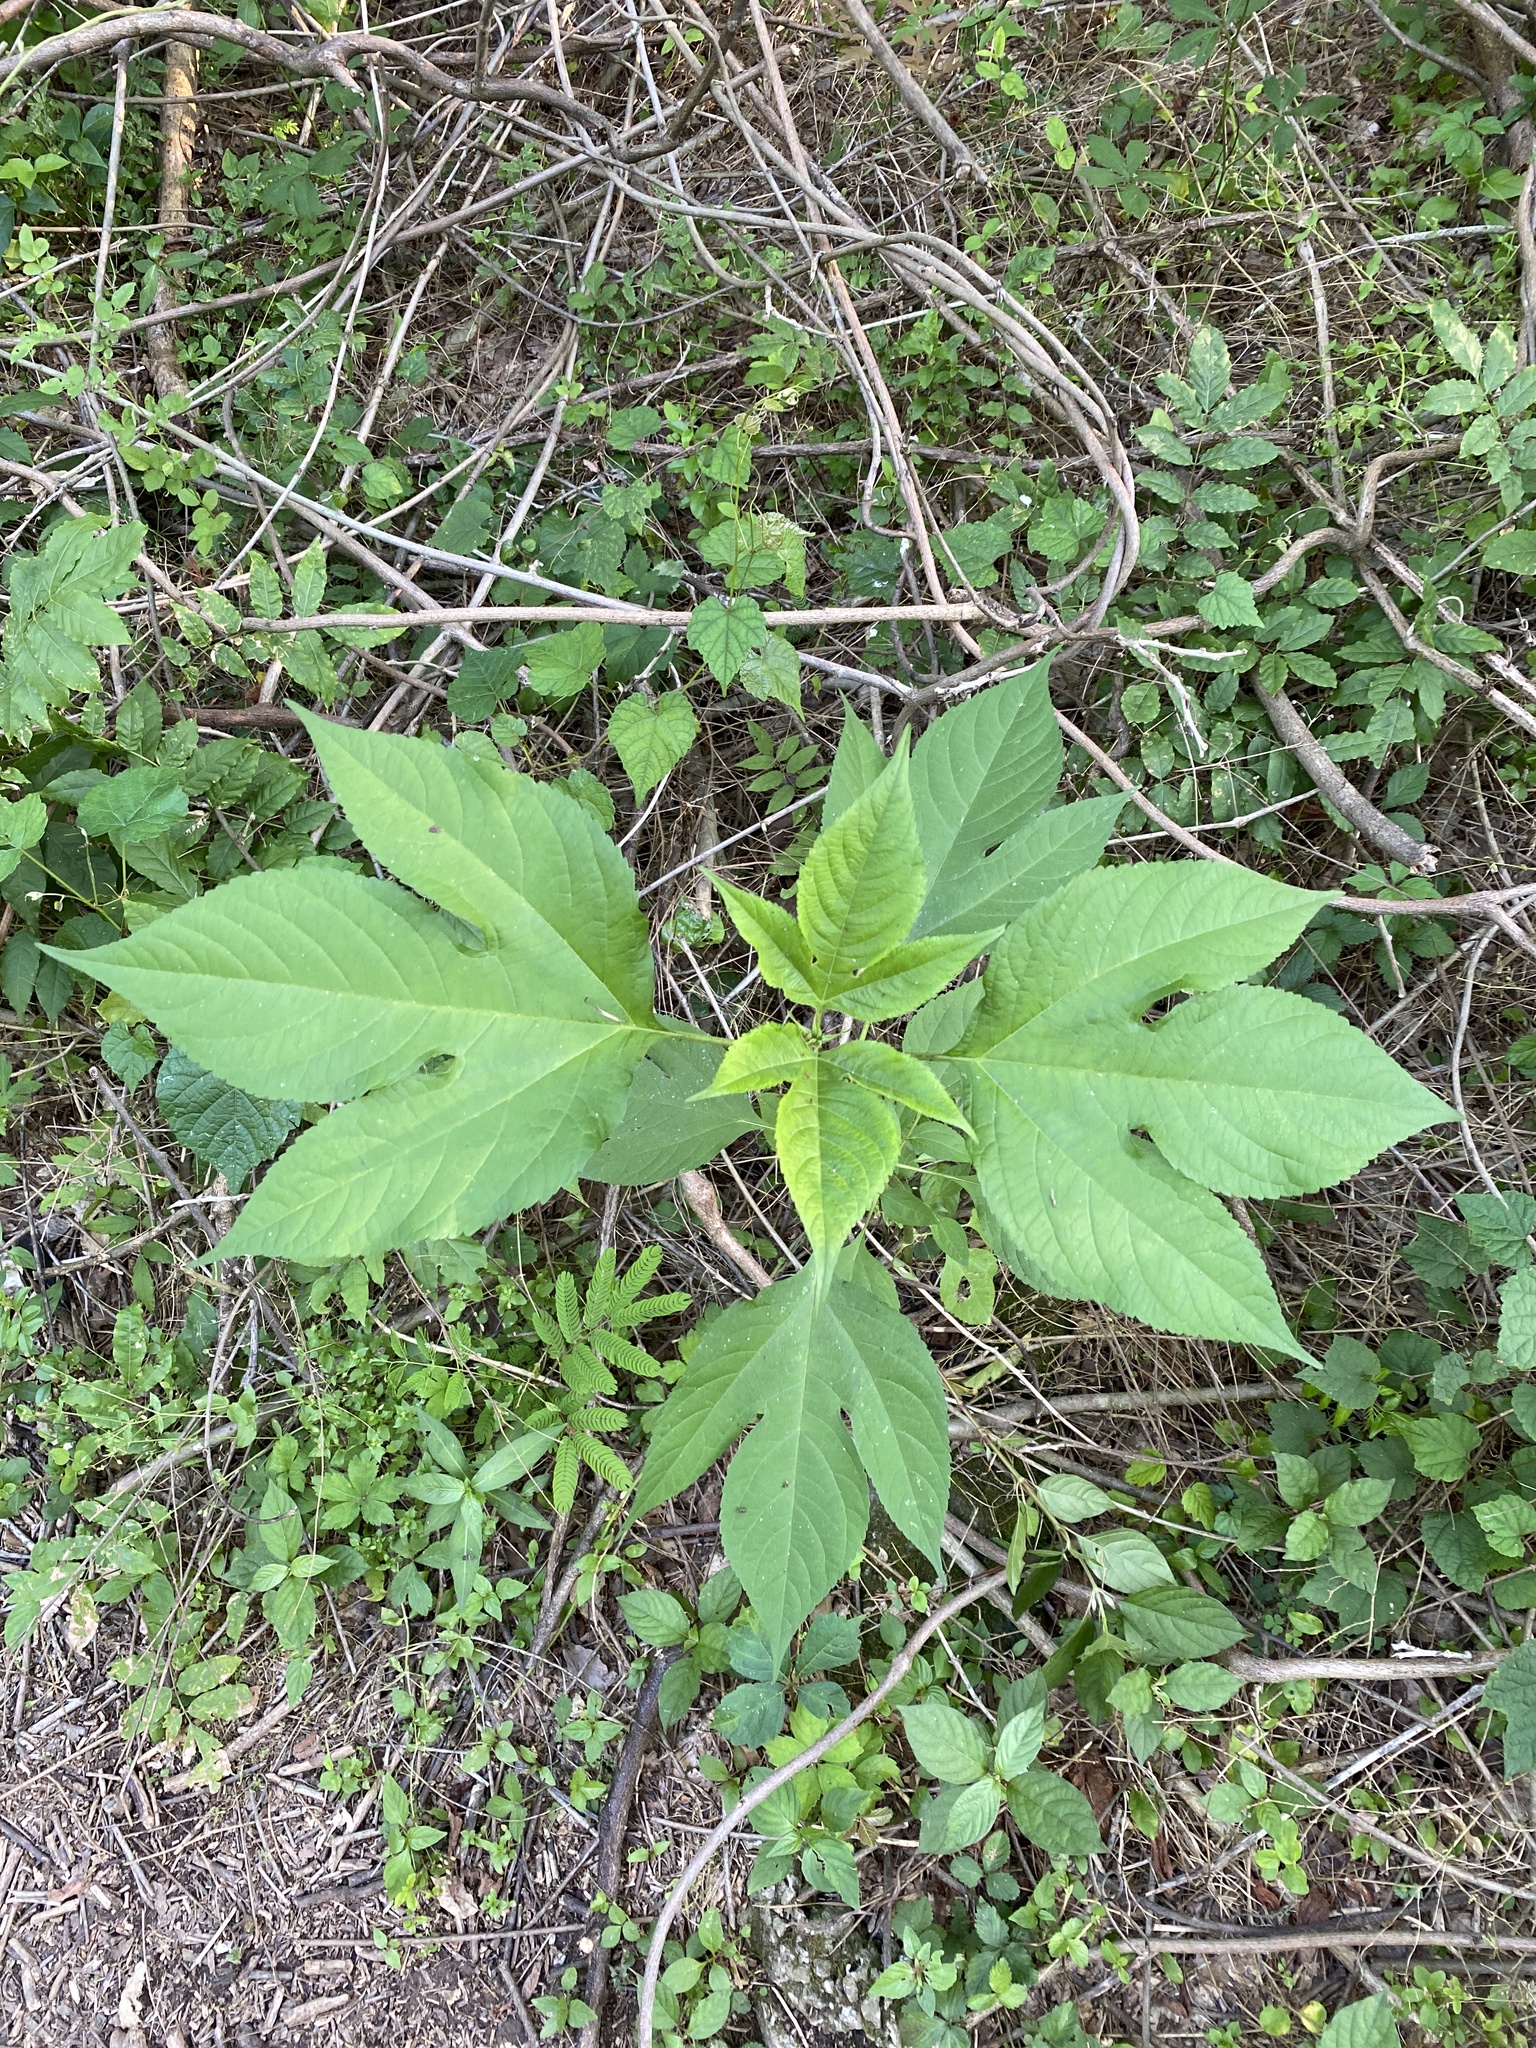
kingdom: Plantae
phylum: Tracheophyta
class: Magnoliopsida
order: Asterales
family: Asteraceae
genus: Ambrosia
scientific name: Ambrosia trifida
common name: Giant ragweed
